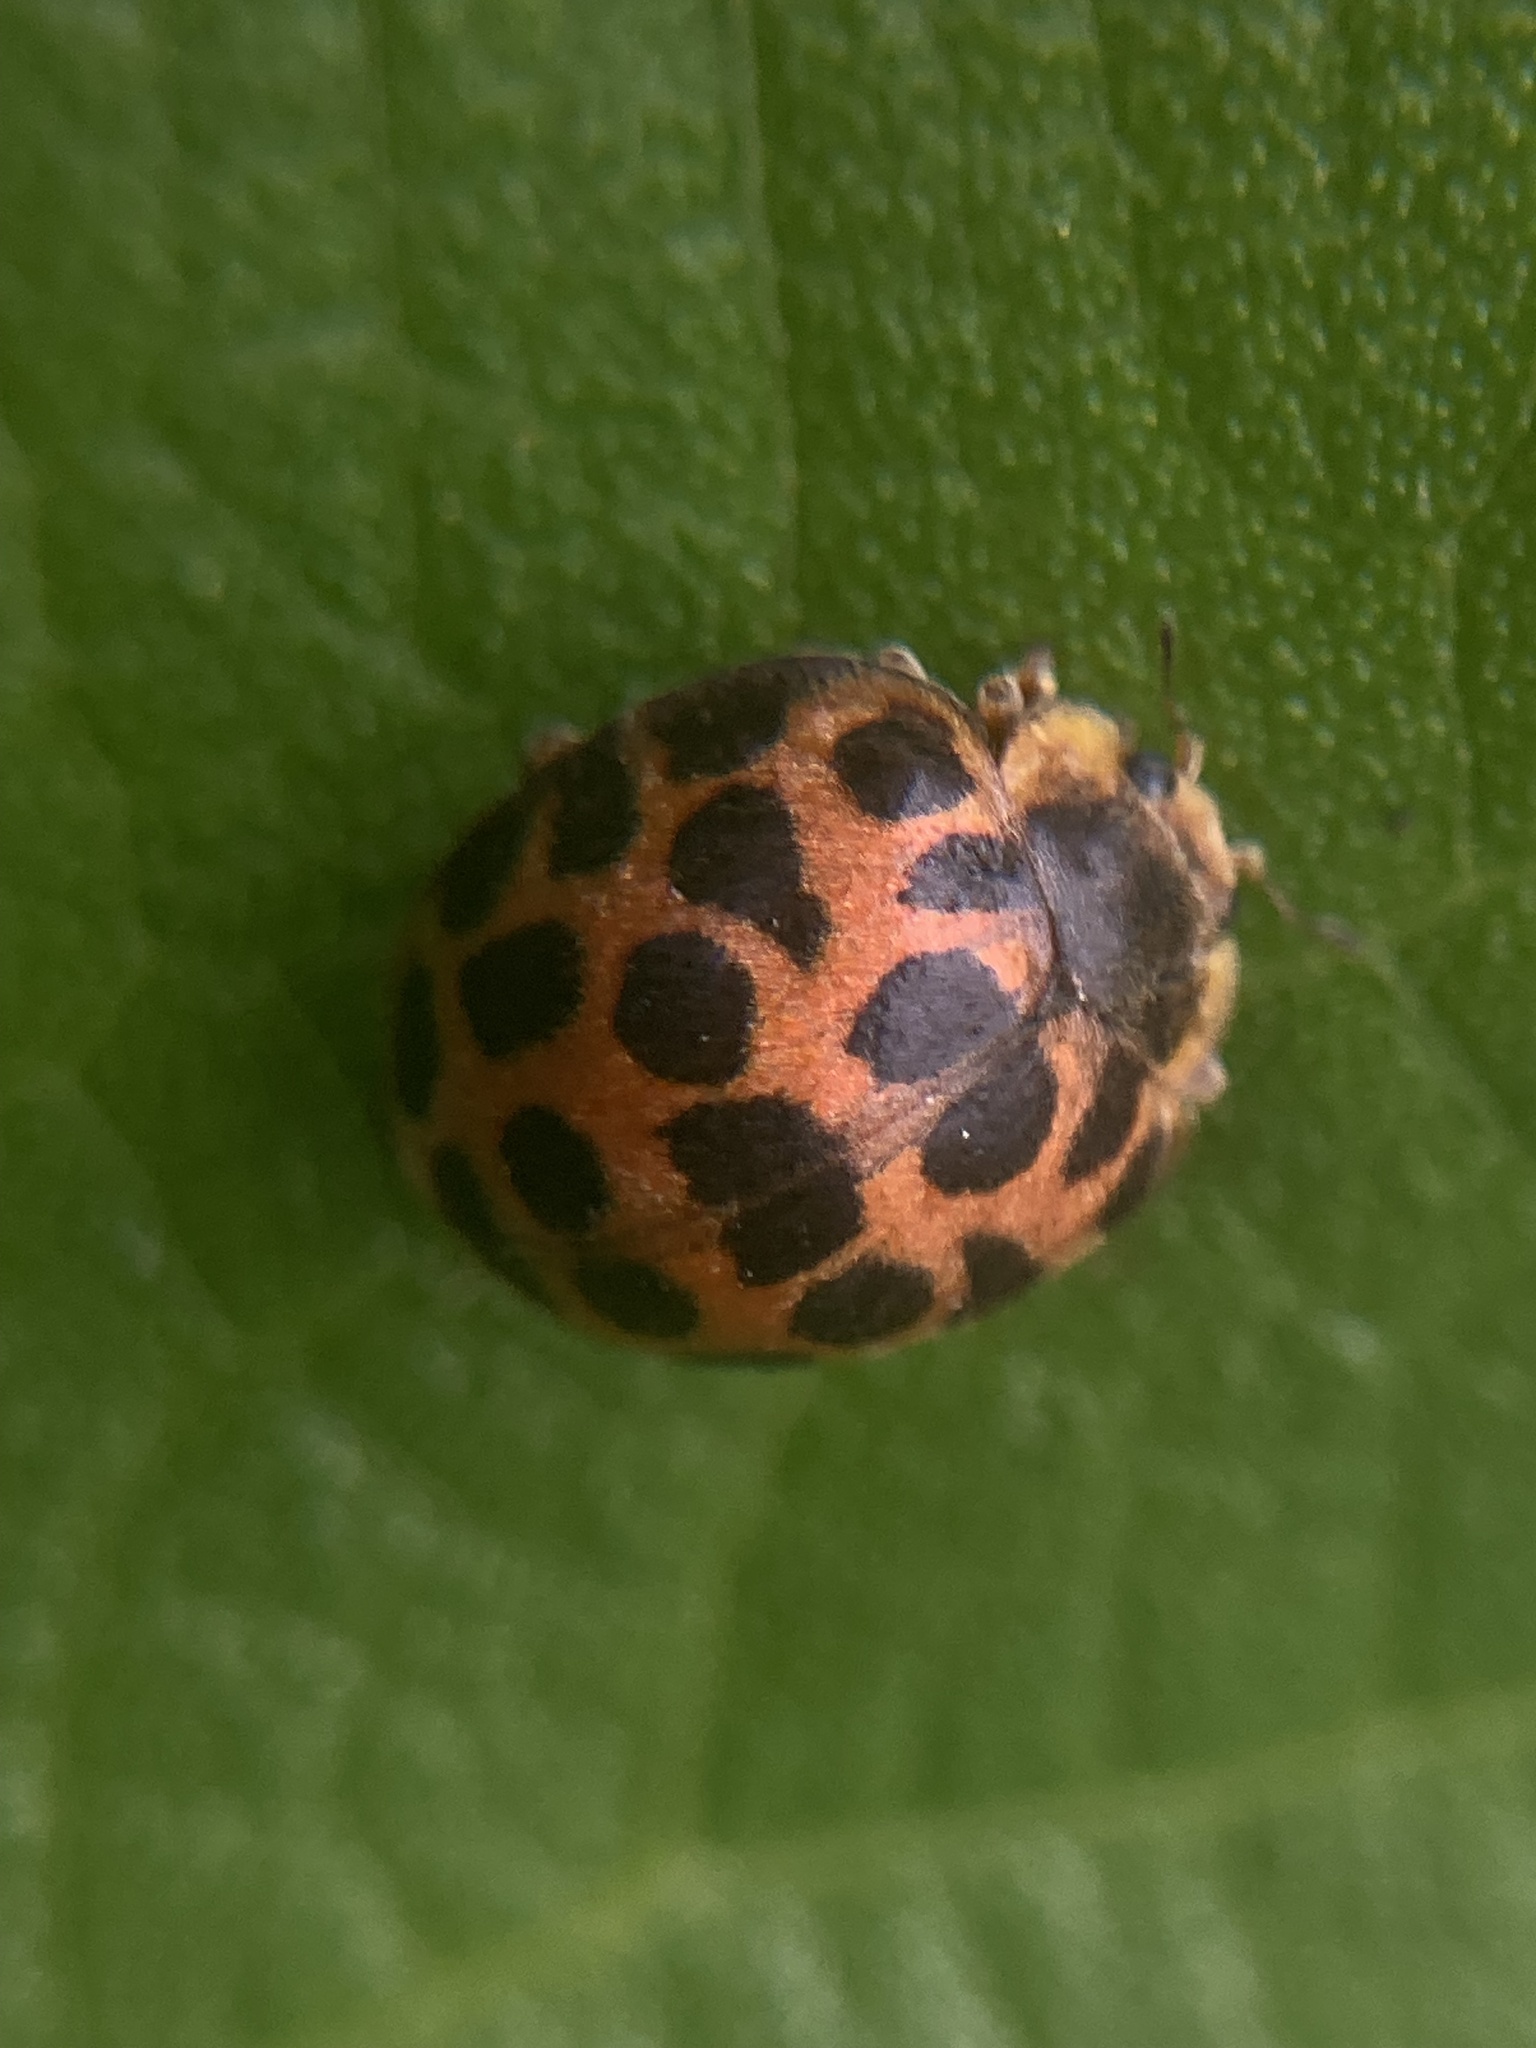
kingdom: Animalia
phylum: Arthropoda
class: Insecta
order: Coleoptera
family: Coccinellidae
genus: Henosepilachna
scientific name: Henosepilachna vigintisexpunctata
